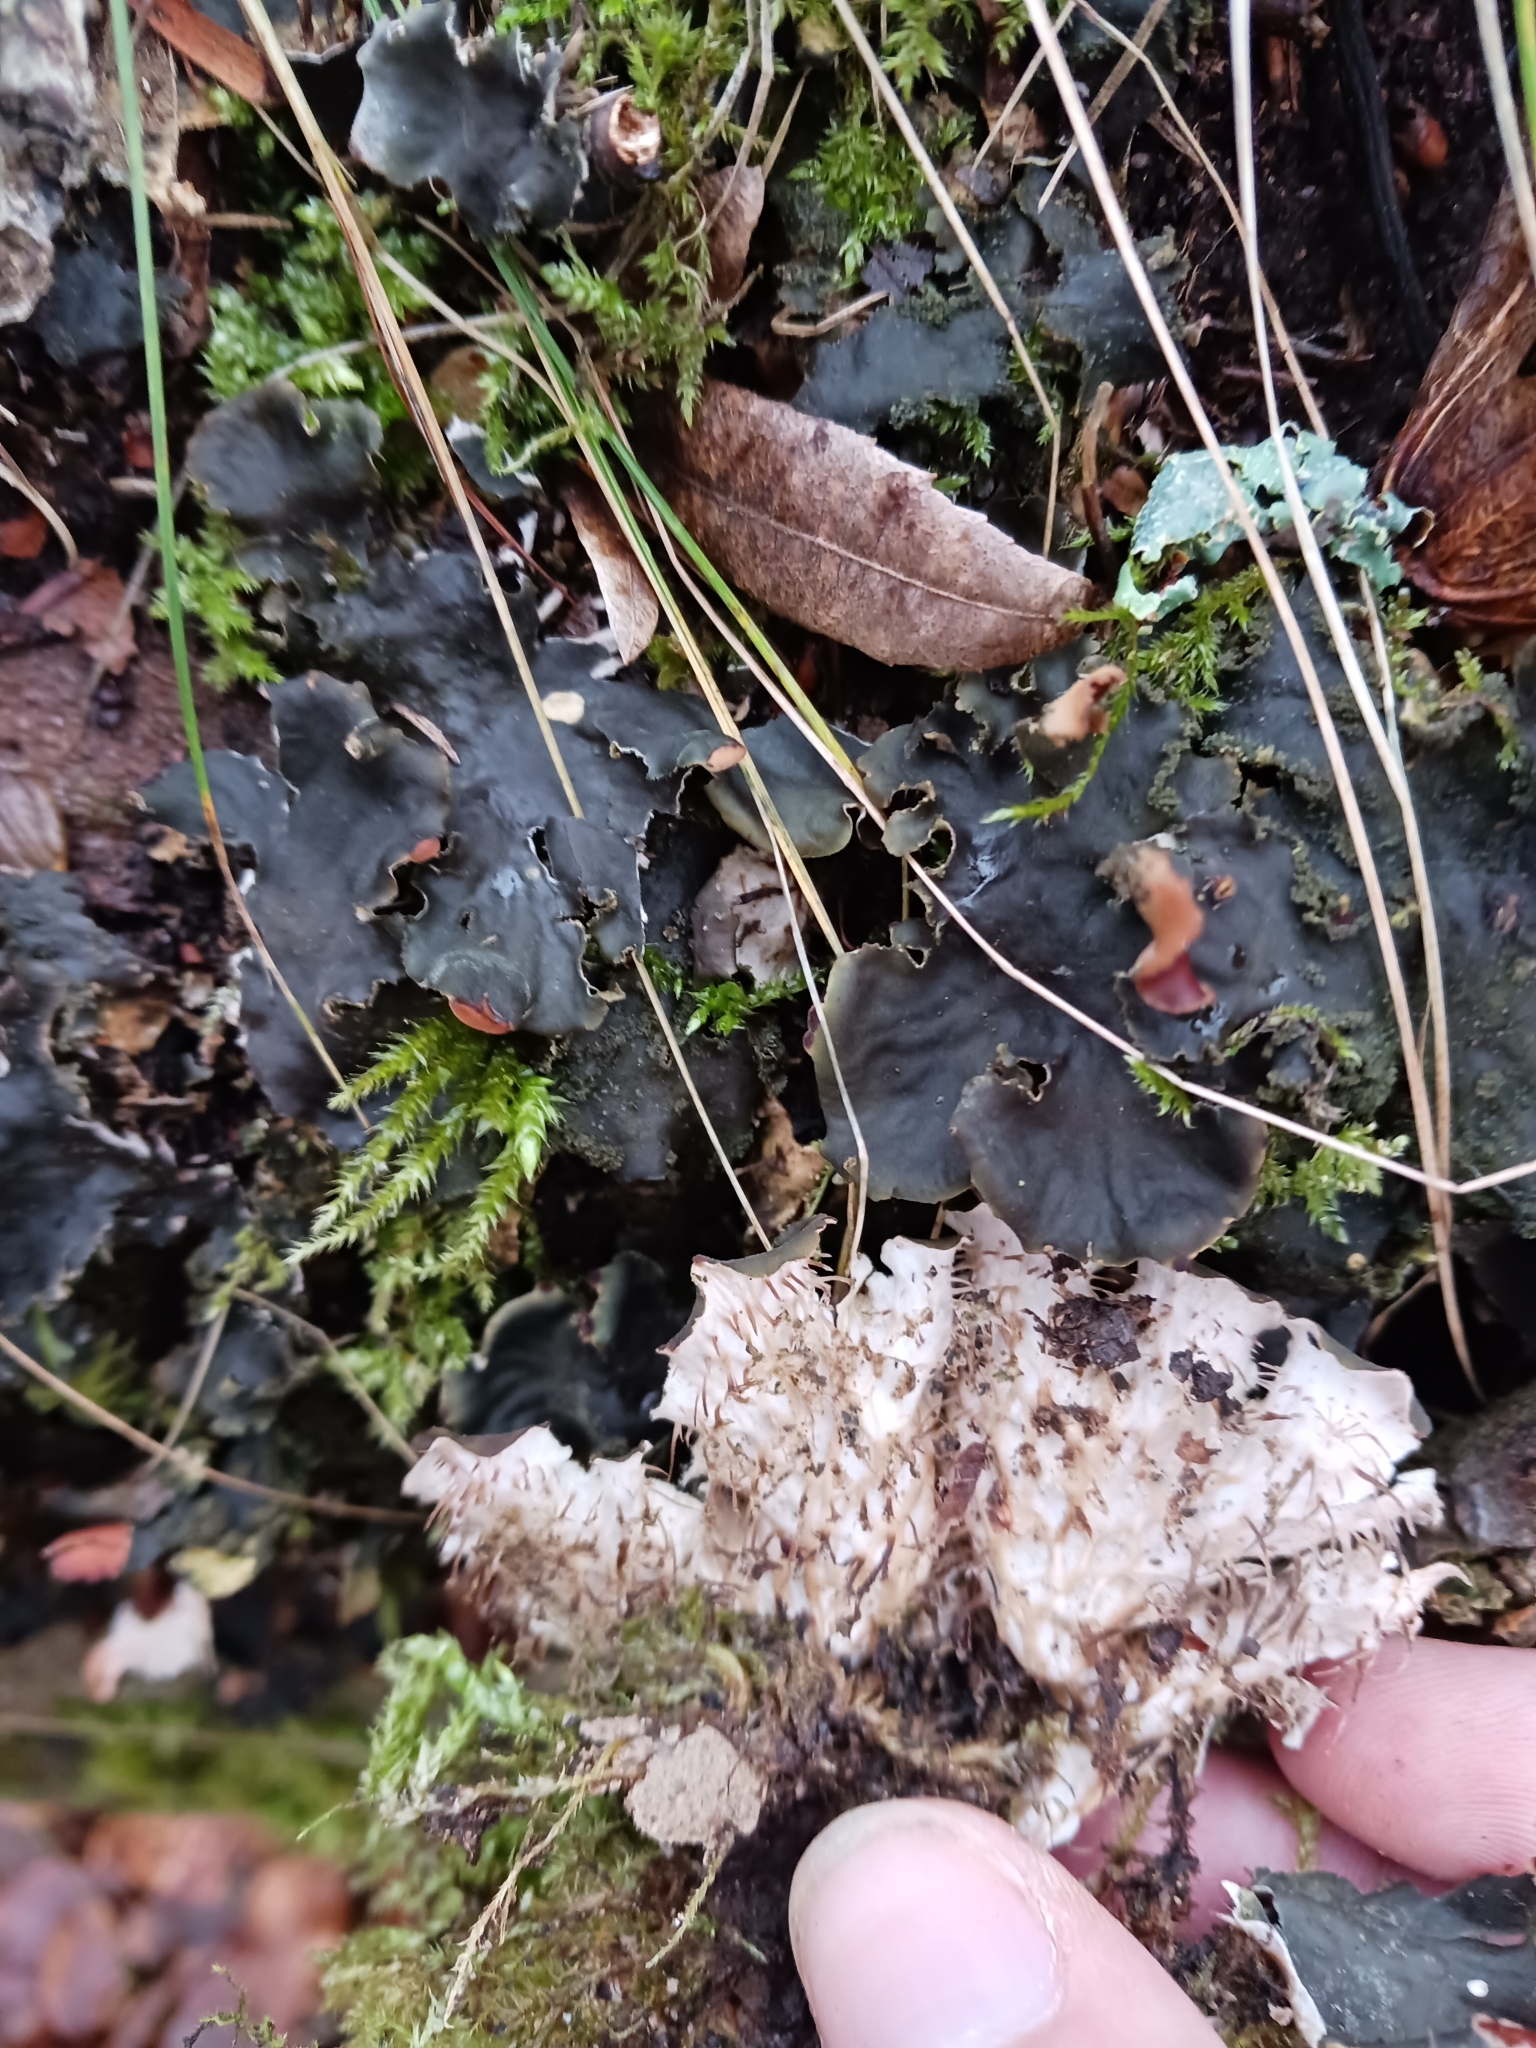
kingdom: Fungi
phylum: Ascomycota
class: Lecanoromycetes
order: Peltigerales
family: Peltigeraceae
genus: Peltigera
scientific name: Peltigera praetextata
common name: Scaly dog-lichen
